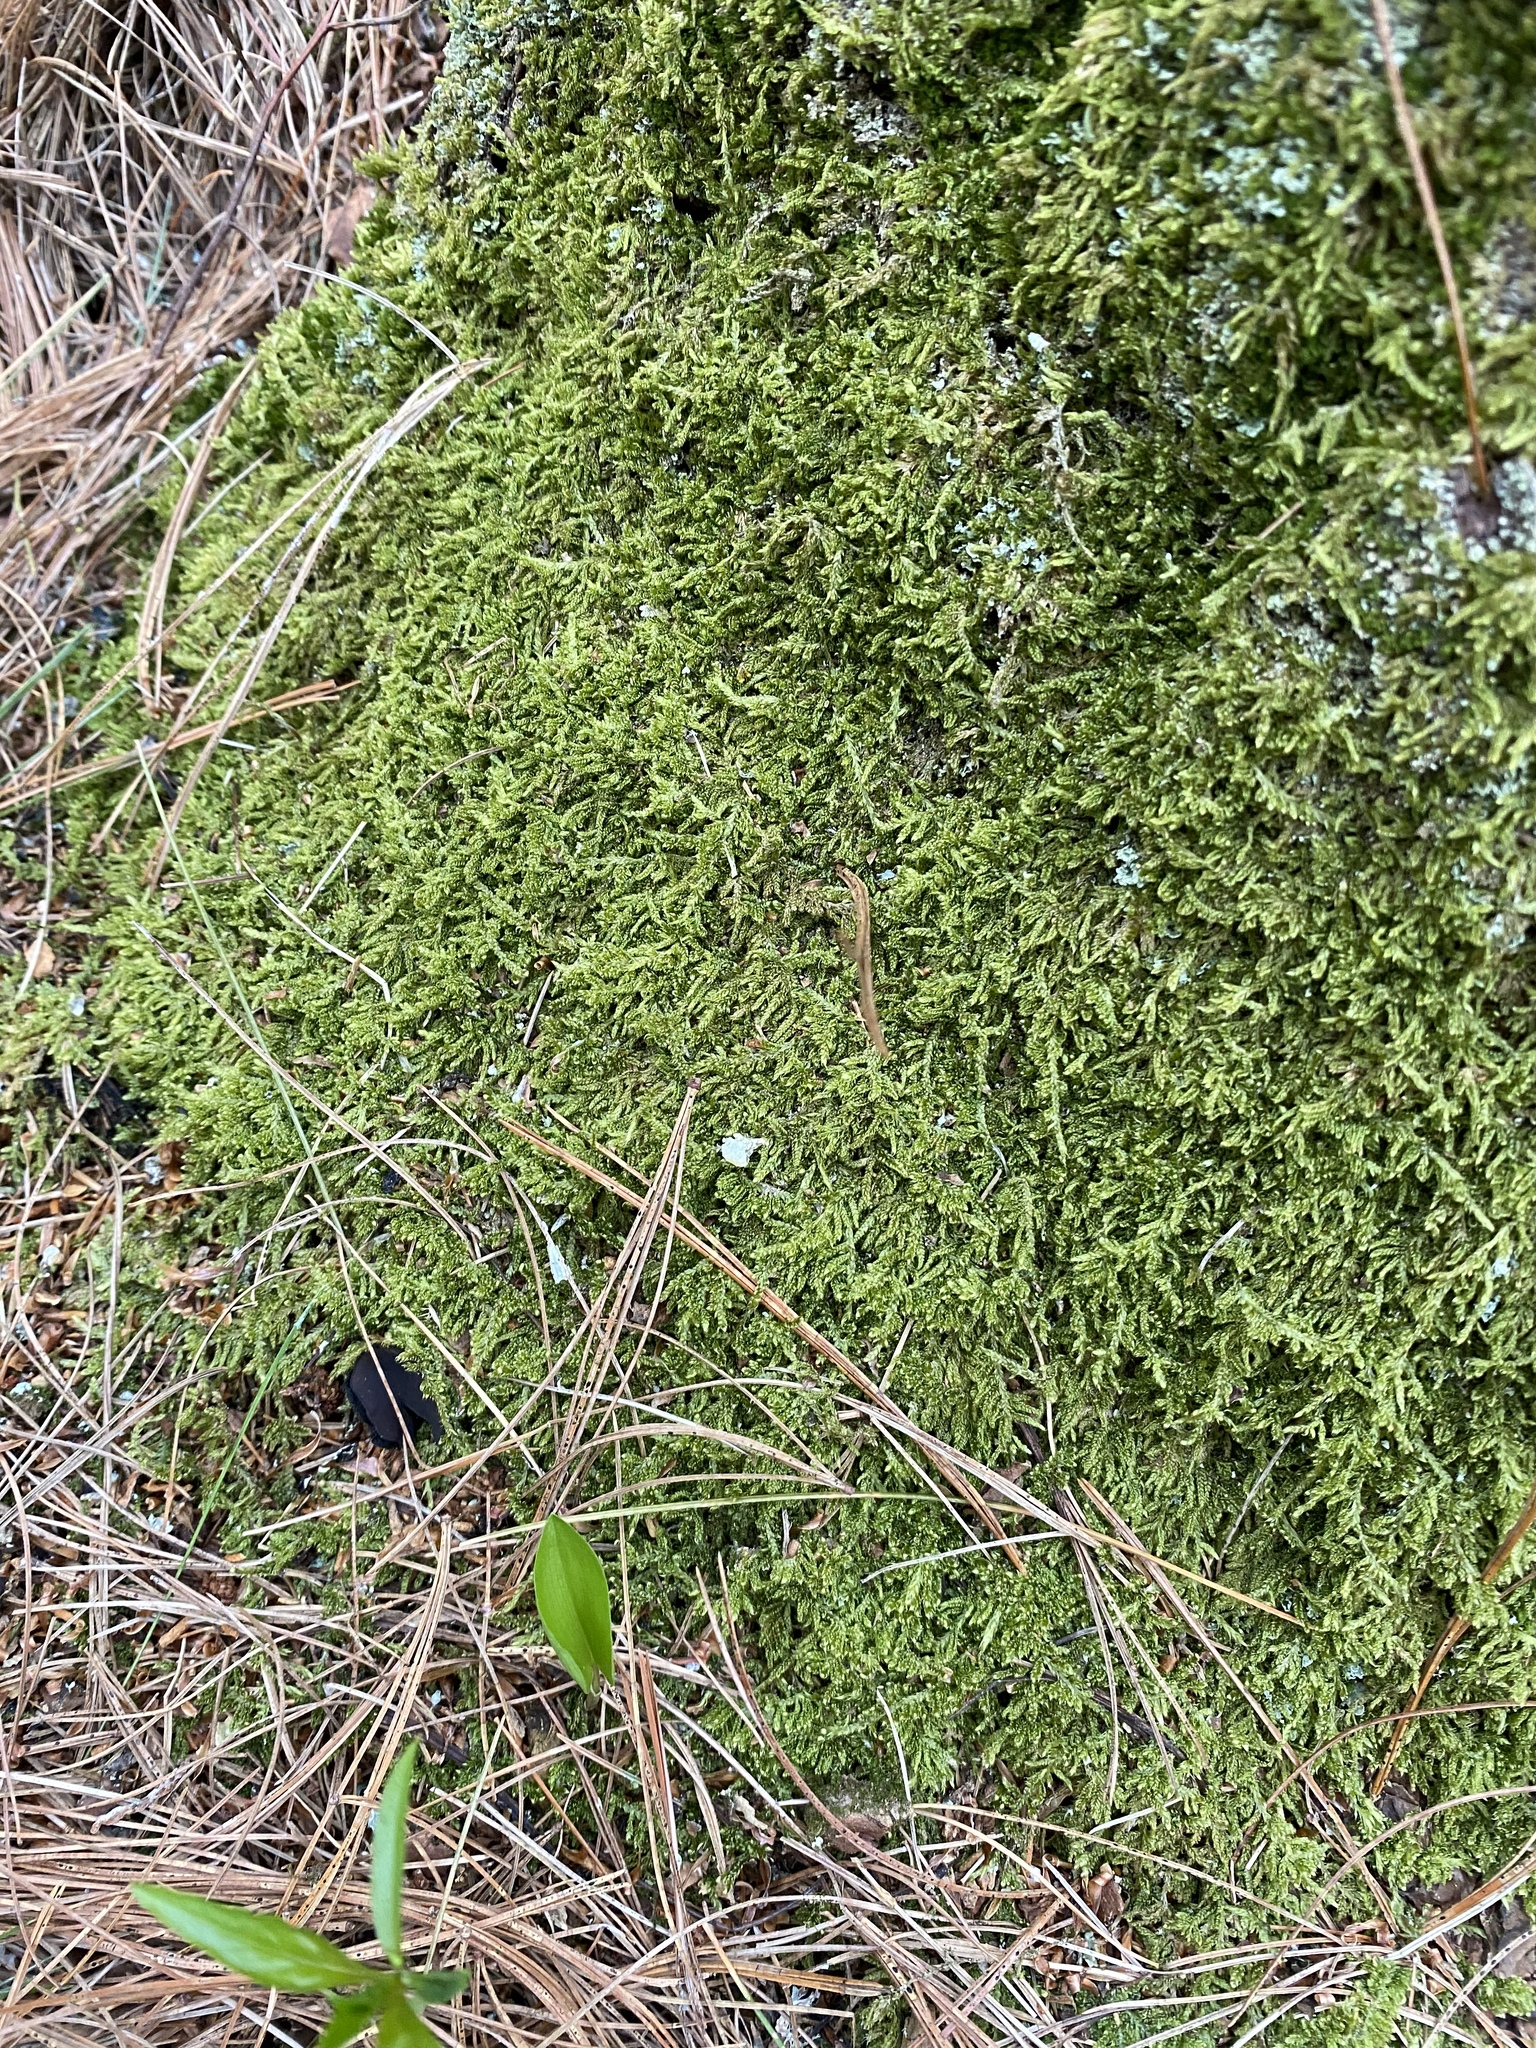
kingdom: Plantae
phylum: Bryophyta
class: Bryopsida
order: Hypnales
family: Entodontaceae
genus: Entodon
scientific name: Entodon seductrix
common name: Round-stemmed entodon moss
